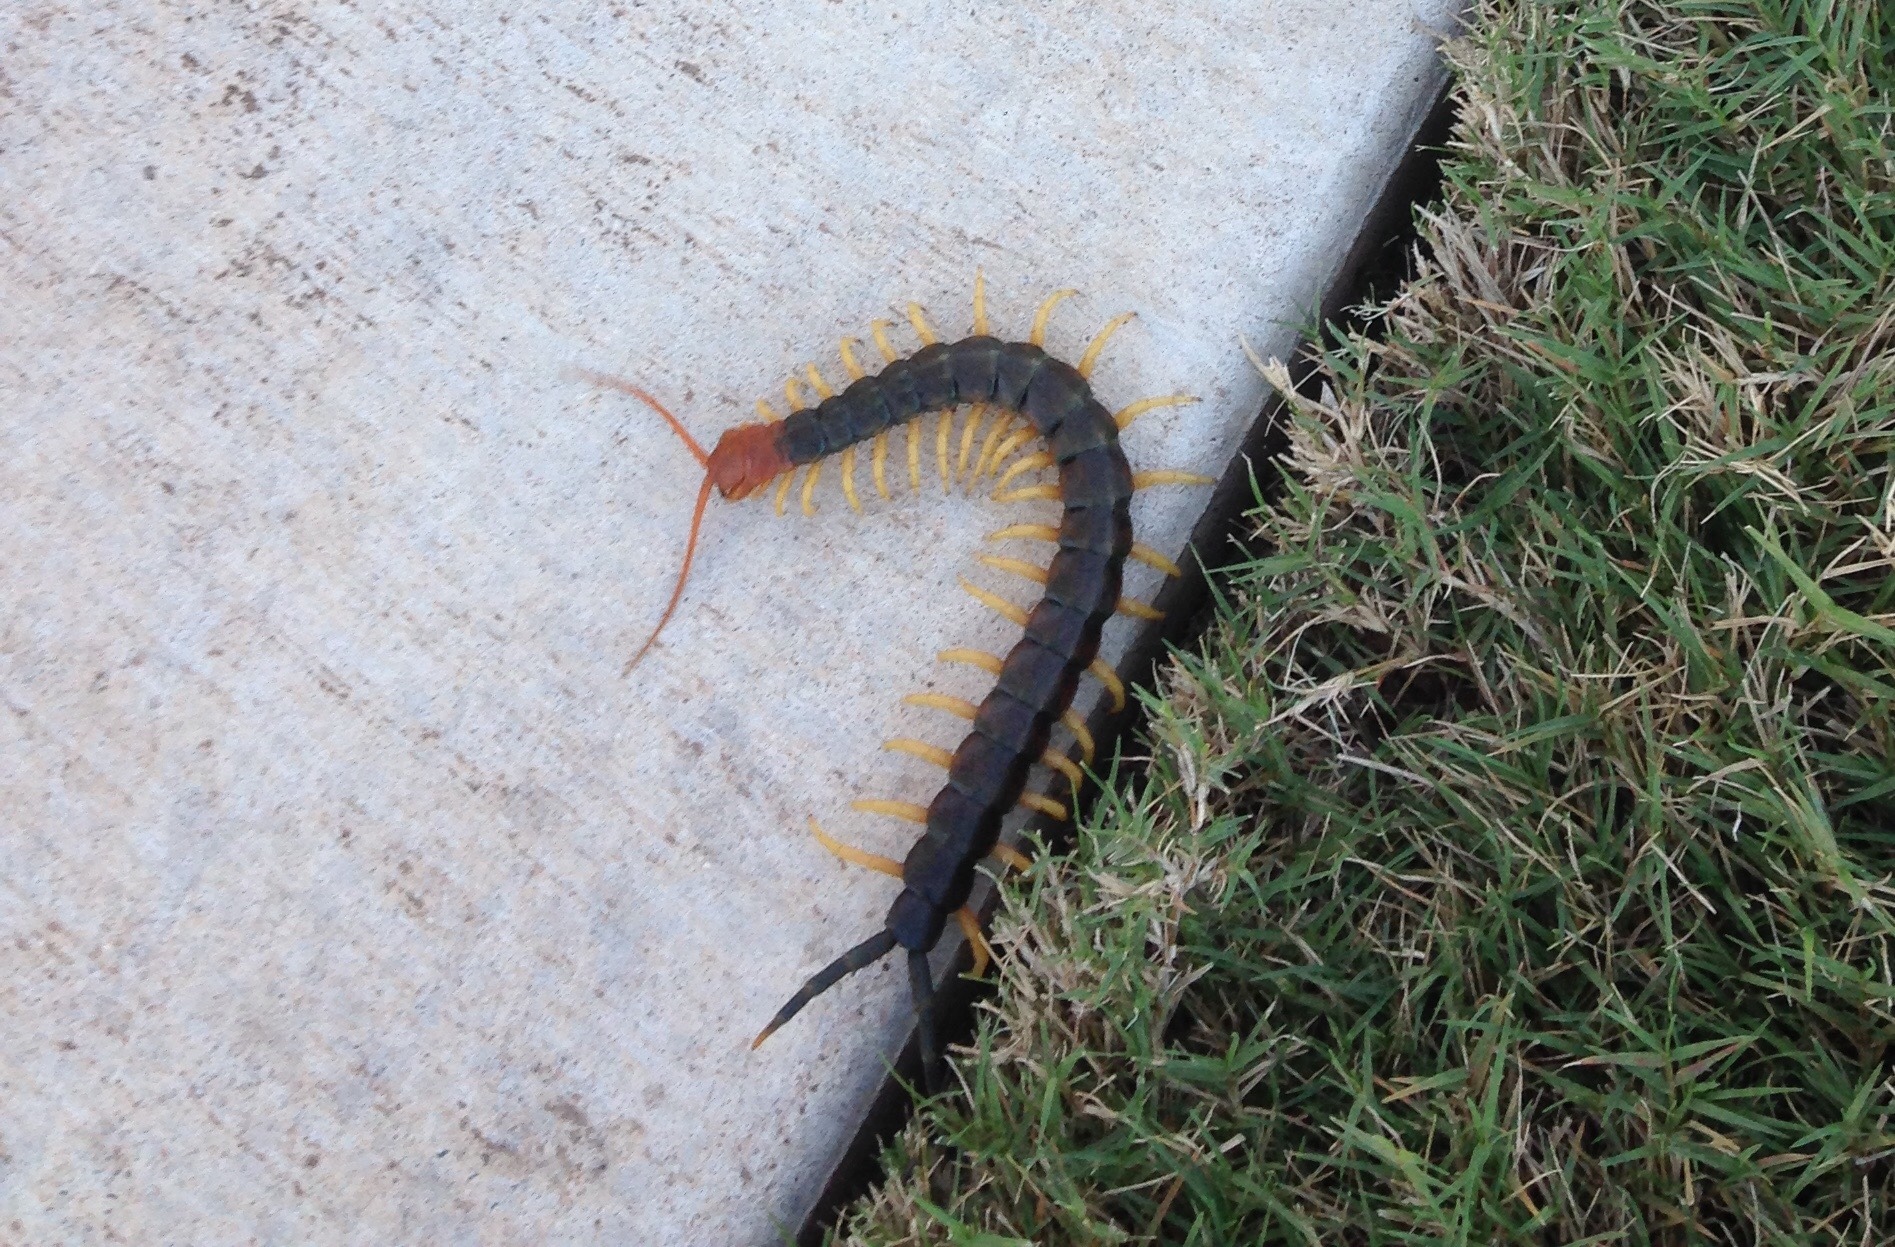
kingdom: Animalia
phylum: Arthropoda
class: Chilopoda
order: Scolopendromorpha
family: Scolopendridae
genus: Scolopendra
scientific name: Scolopendra heros
